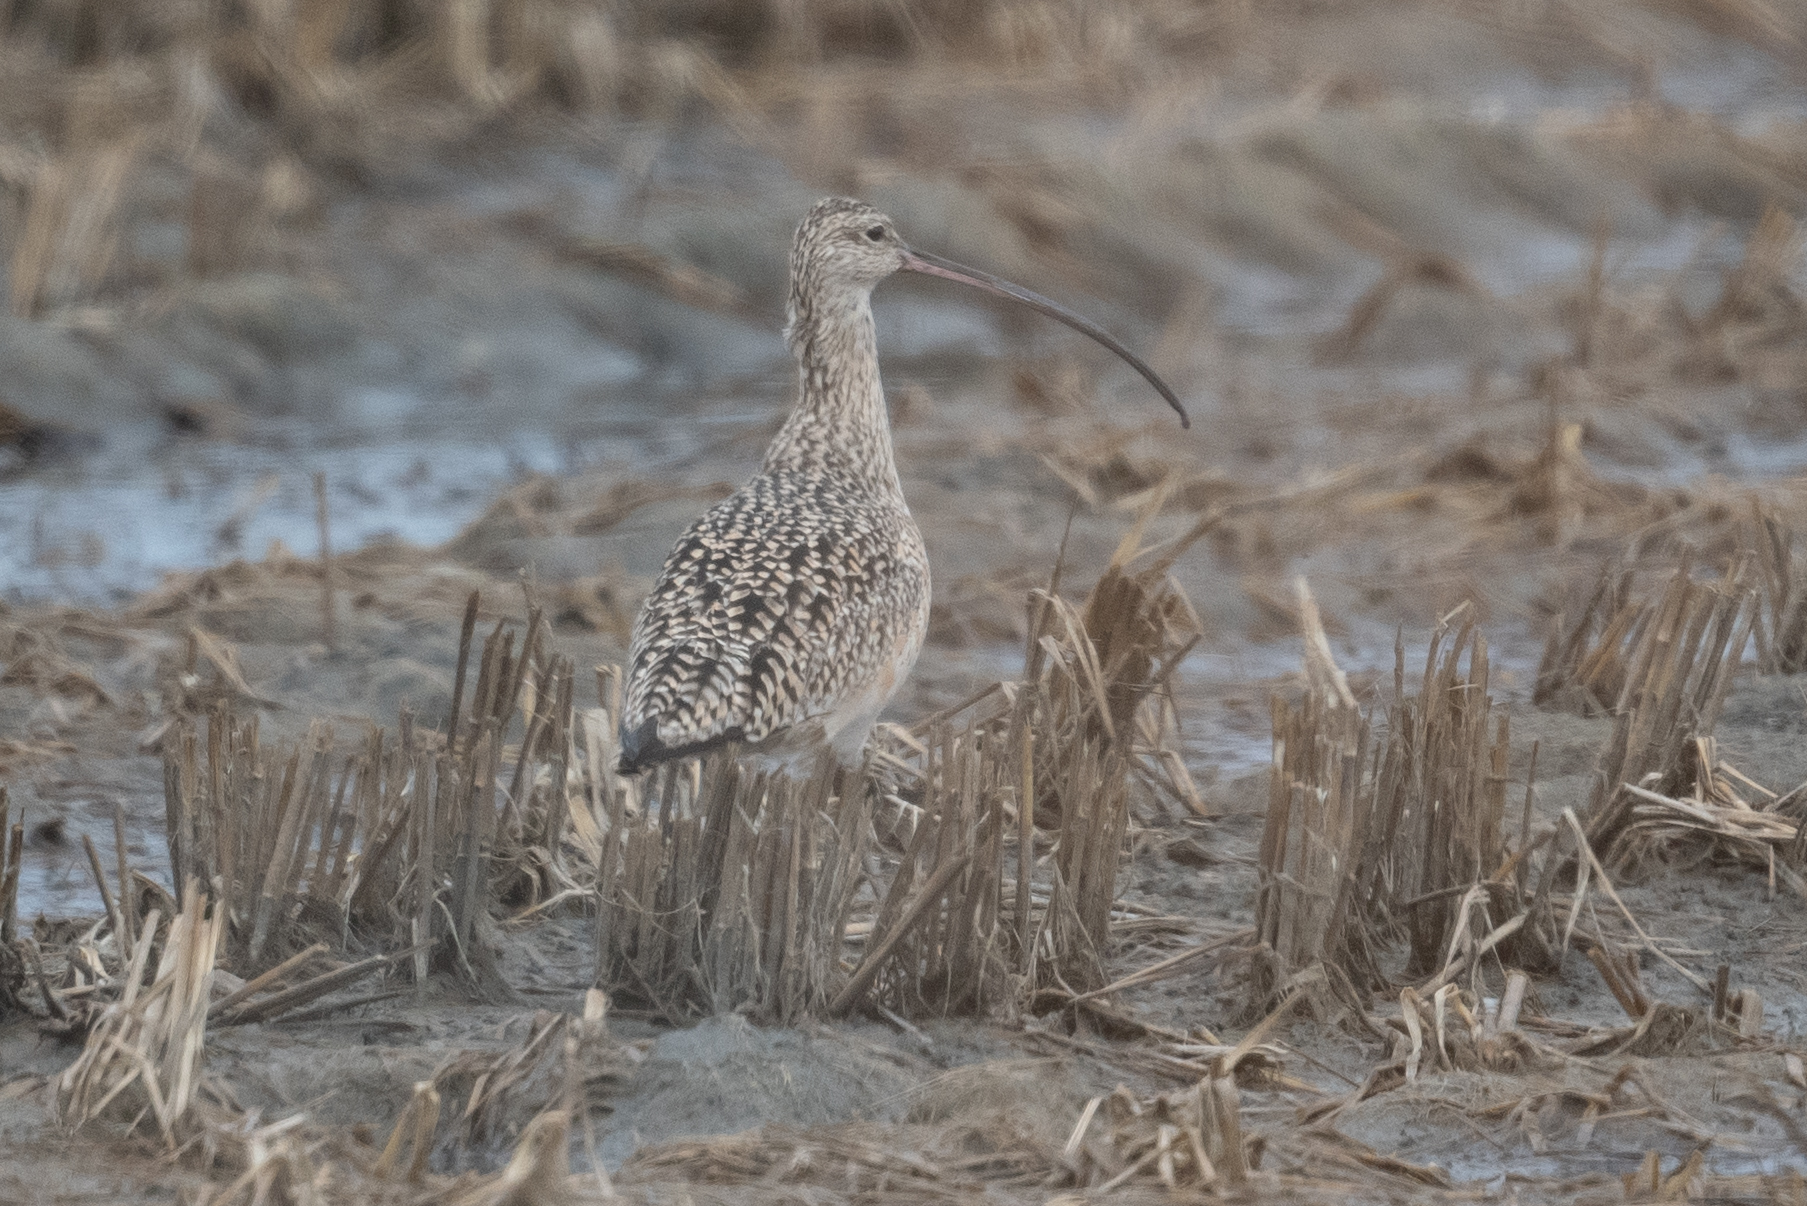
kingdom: Animalia
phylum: Chordata
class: Aves
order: Charadriiformes
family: Scolopacidae
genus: Numenius
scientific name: Numenius americanus
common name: Long-billed curlew
